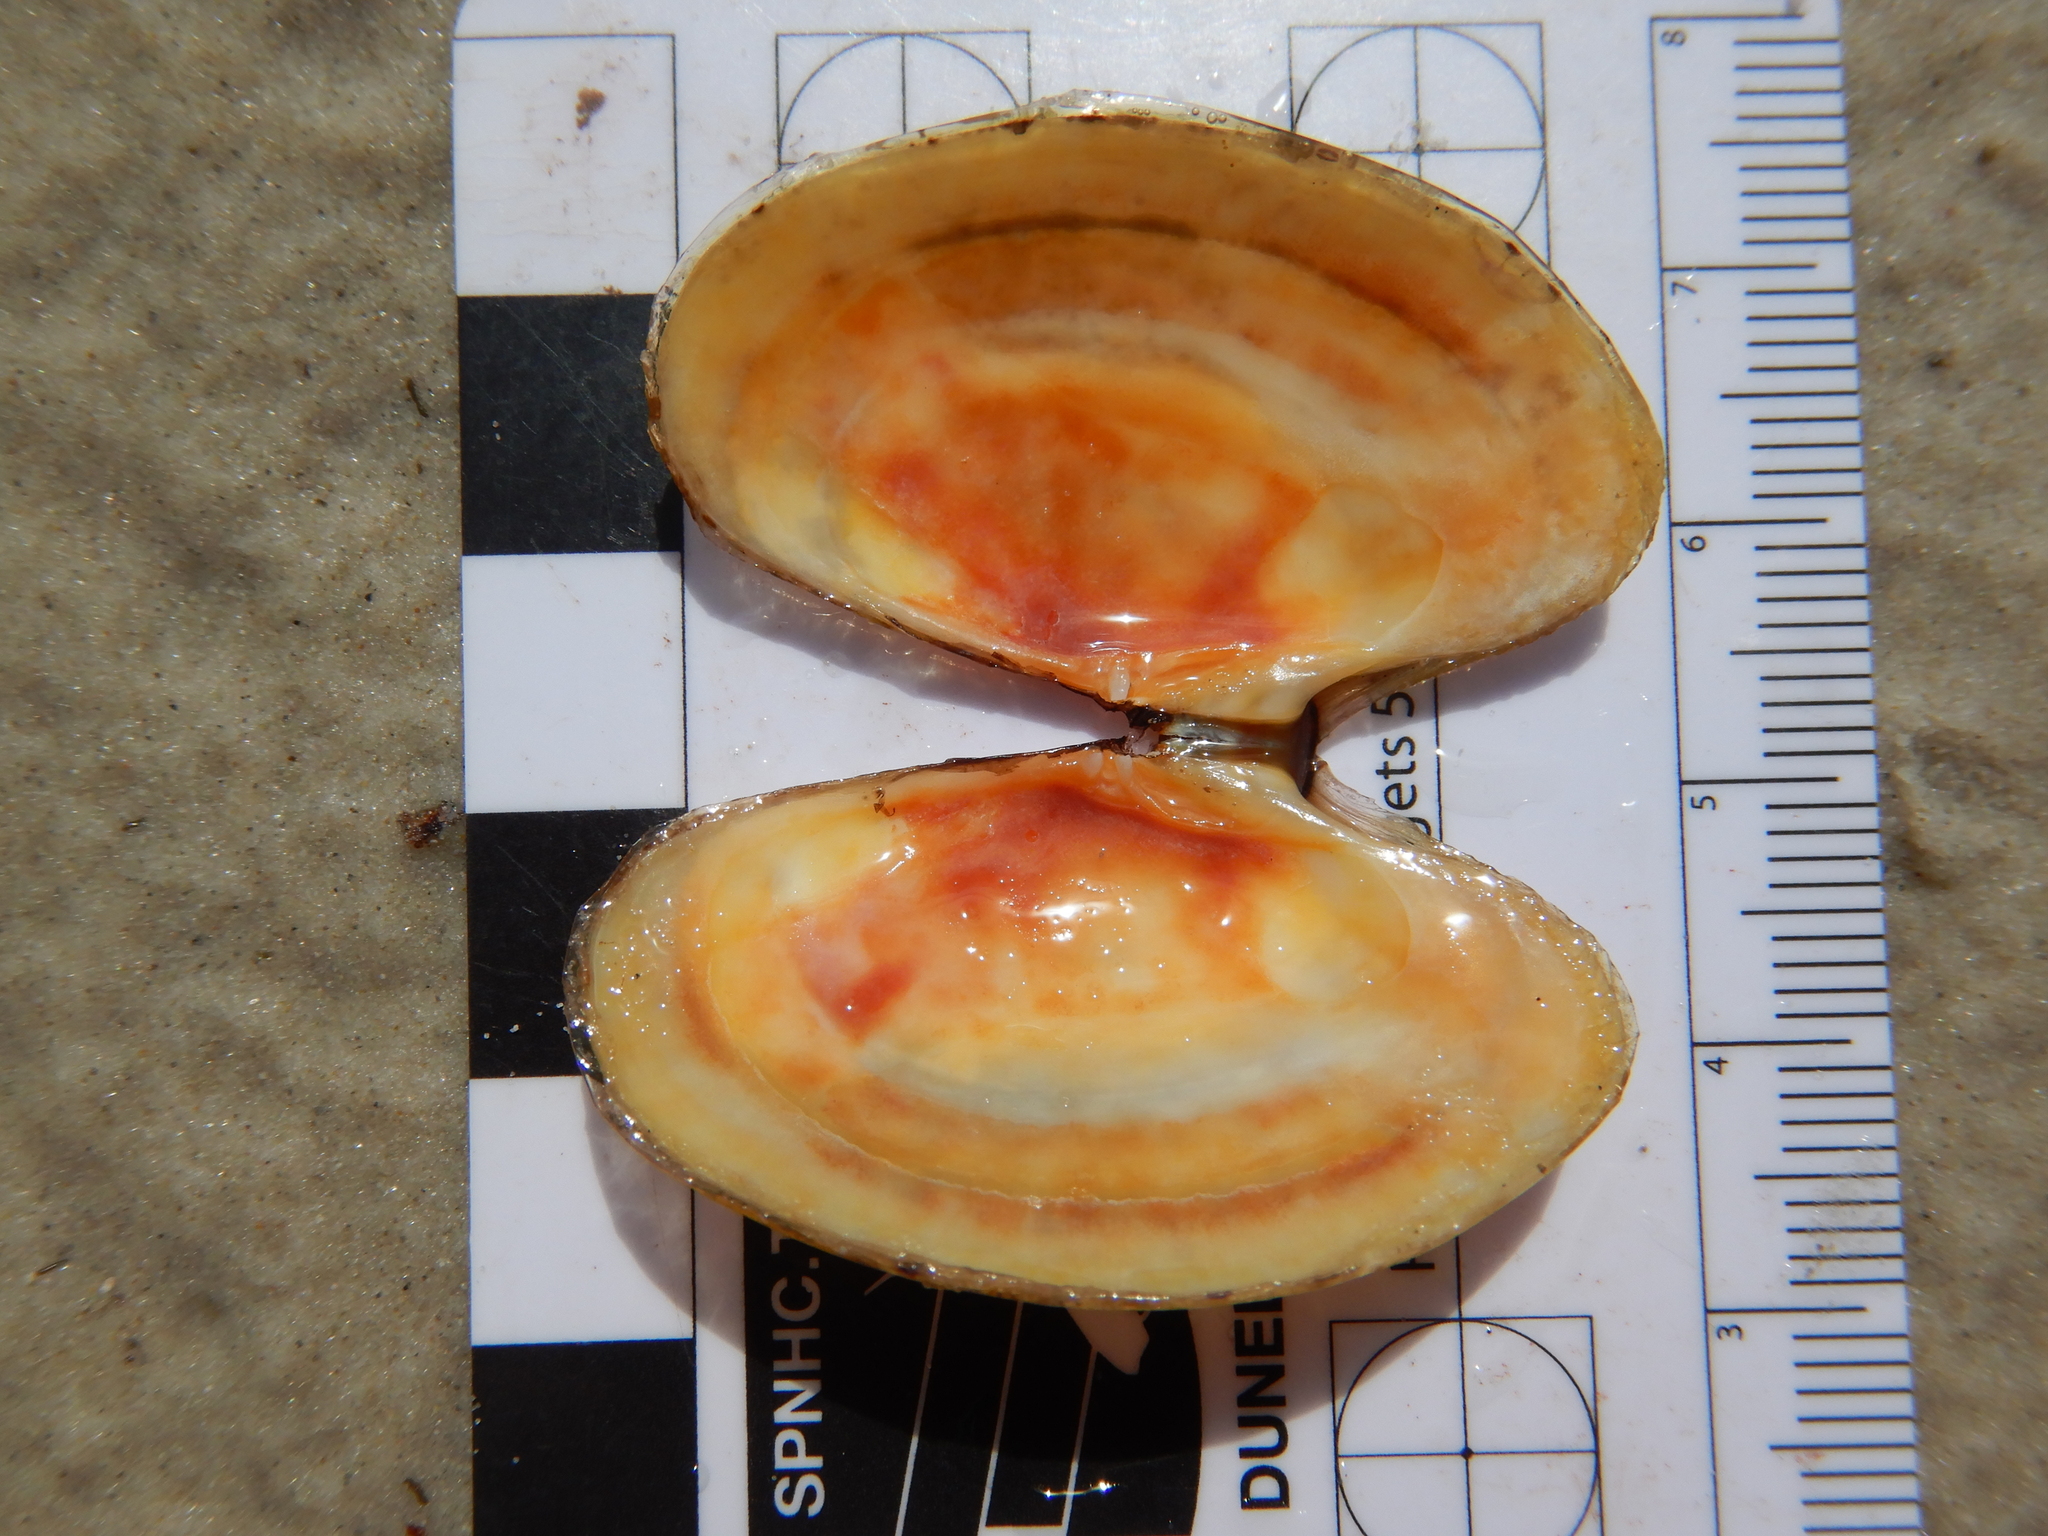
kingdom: Animalia
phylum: Mollusca
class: Bivalvia
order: Cardiida
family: Psammobiidae
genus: Hiatula
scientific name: Hiatula biradiata
